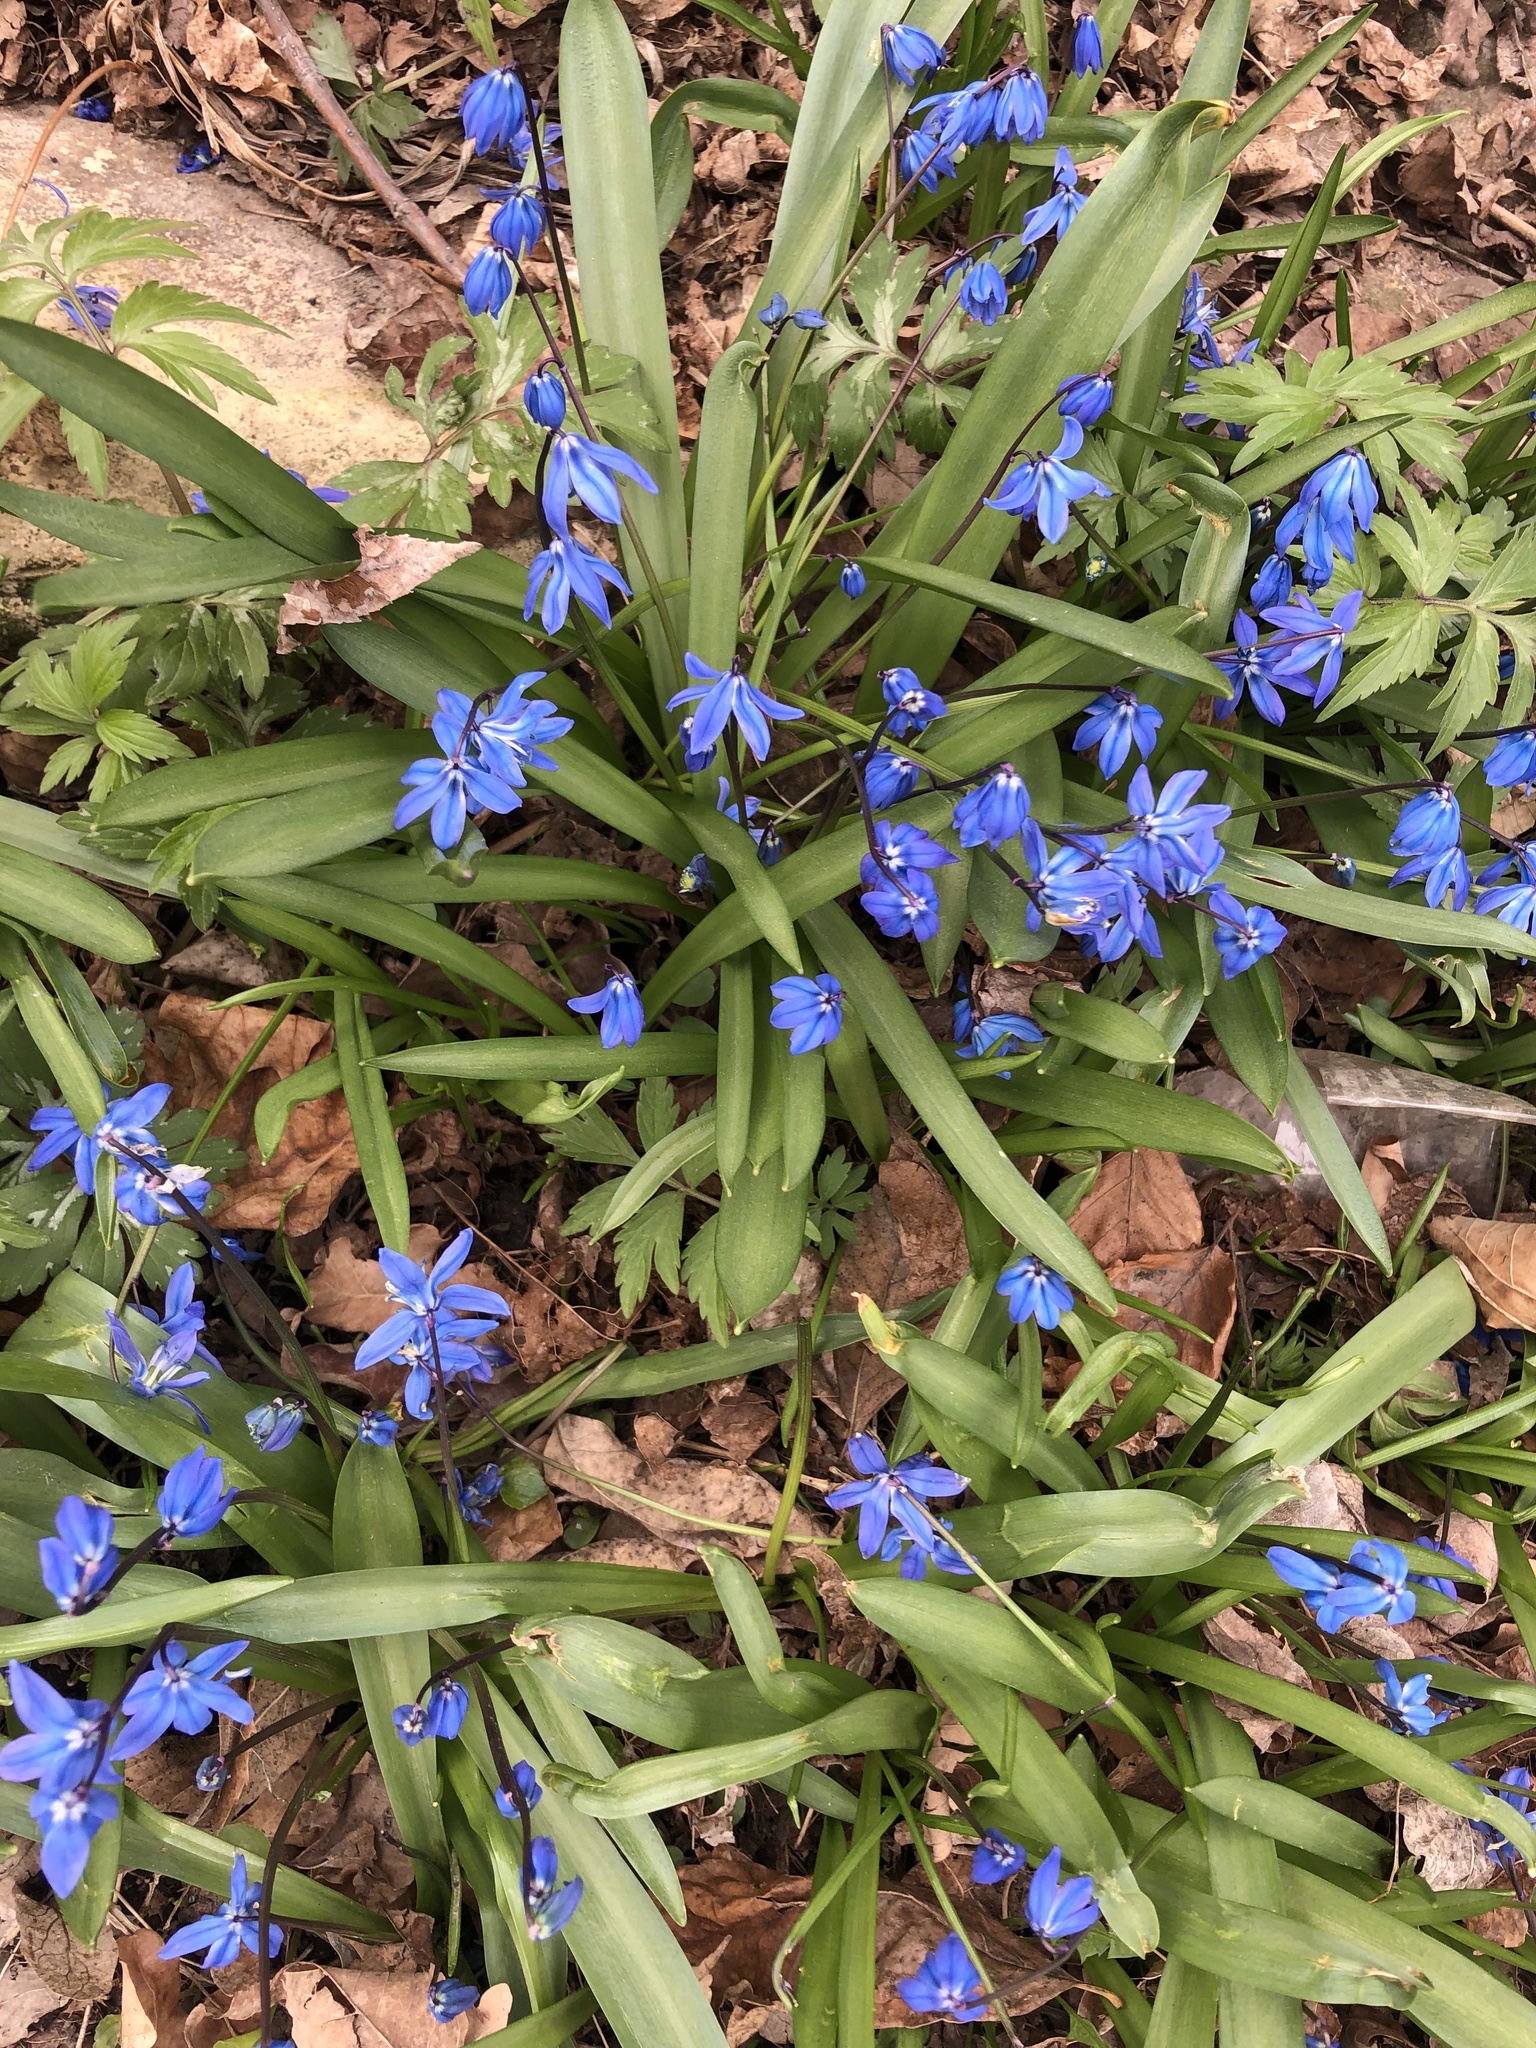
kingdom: Plantae
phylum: Tracheophyta
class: Liliopsida
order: Asparagales
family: Asparagaceae
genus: Scilla
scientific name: Scilla siberica
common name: Siberian squill
